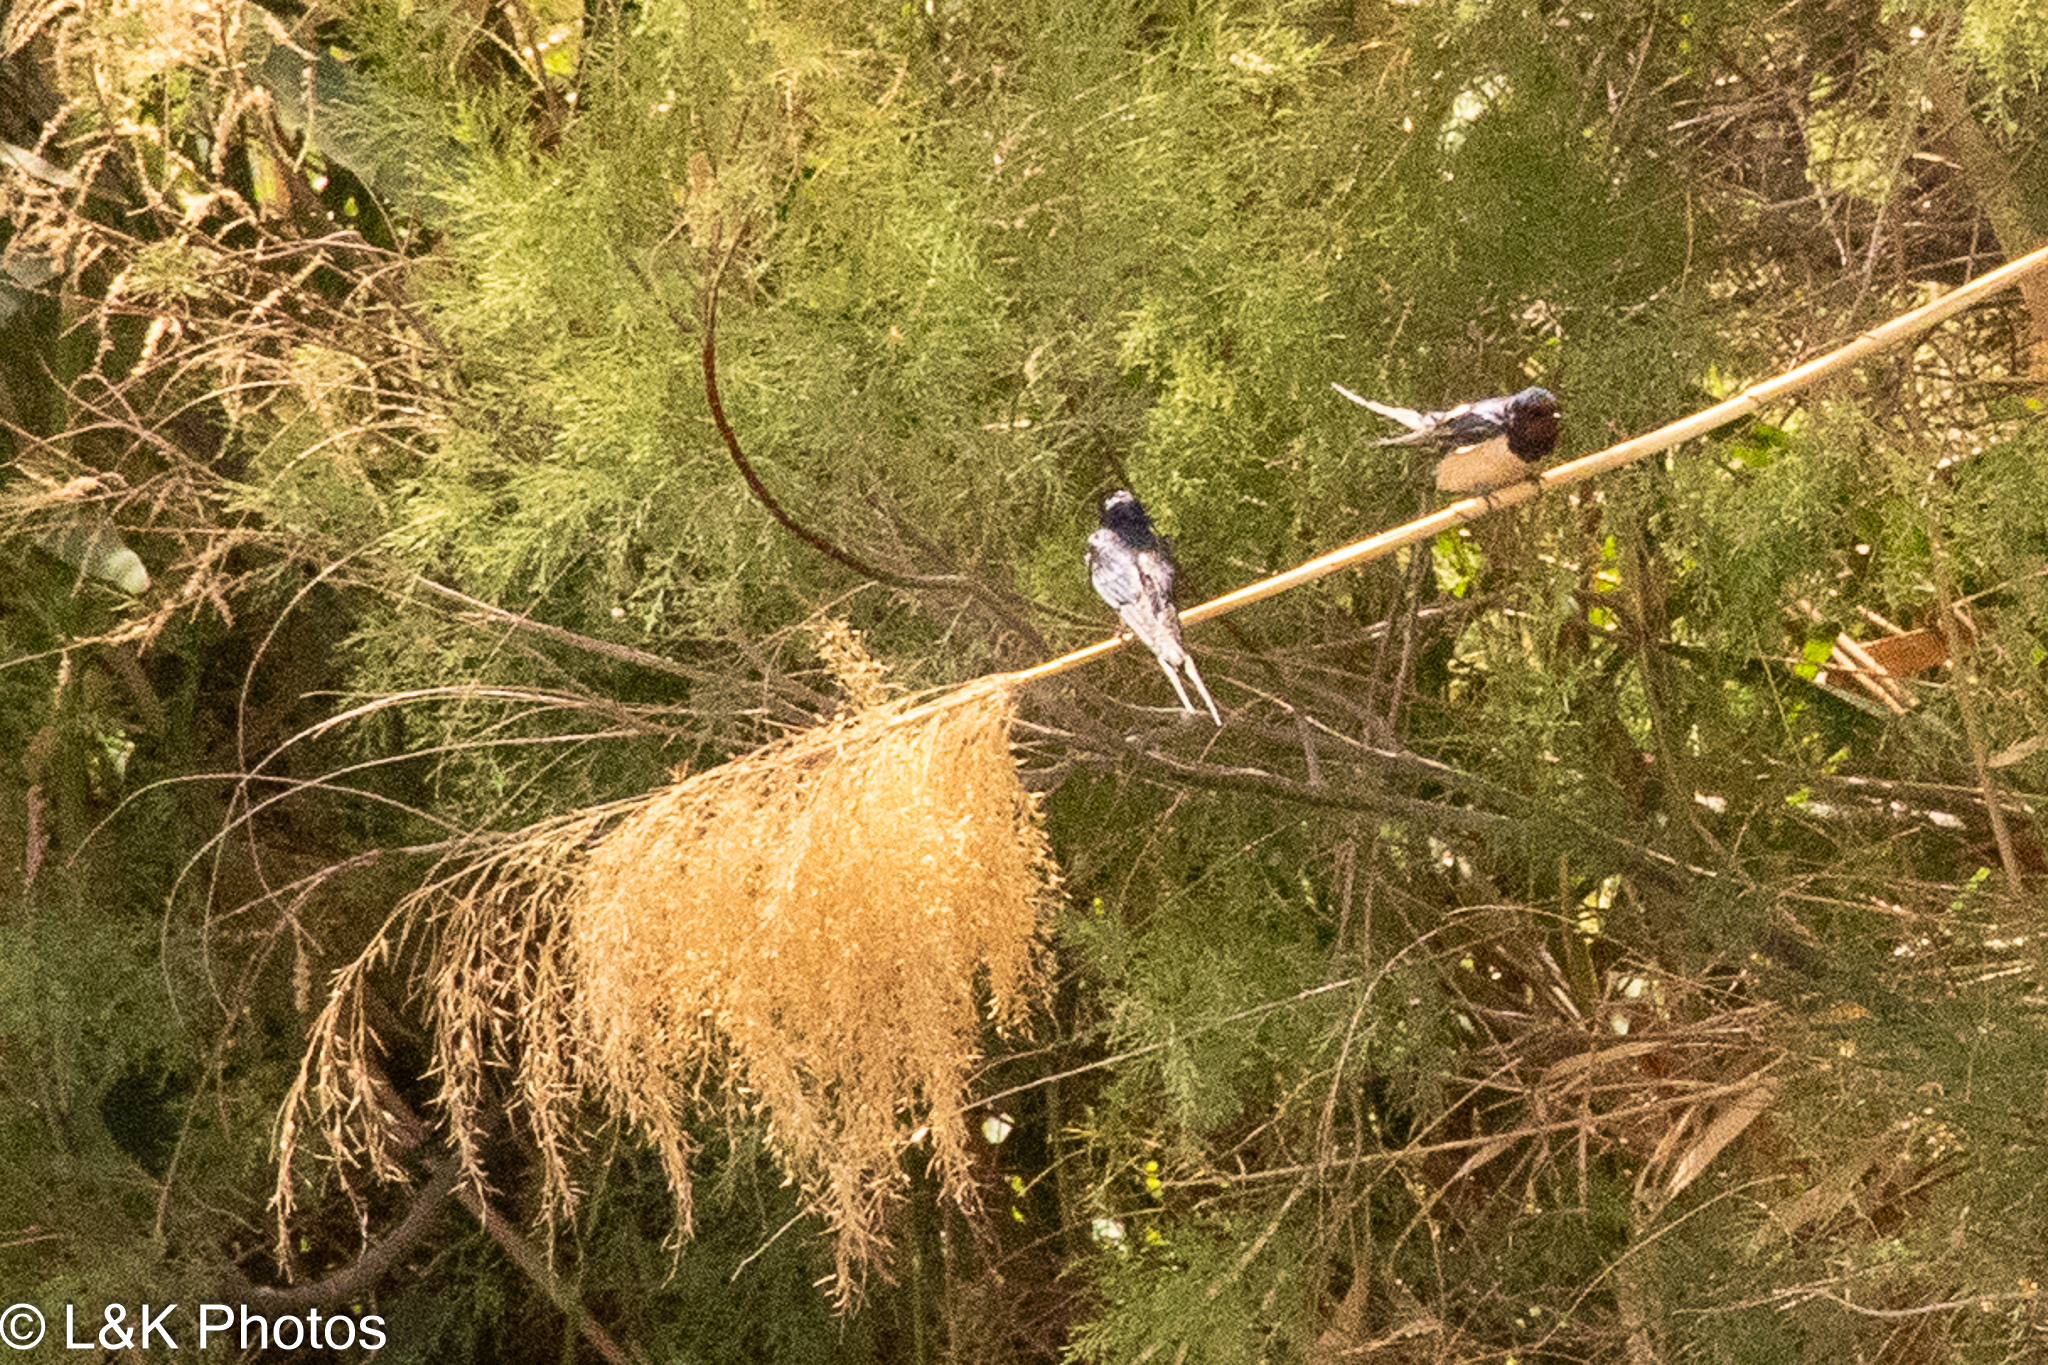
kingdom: Animalia
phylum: Chordata
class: Aves
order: Passeriformes
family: Hirundinidae
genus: Hirundo
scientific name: Hirundo rustica
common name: Barn swallow
